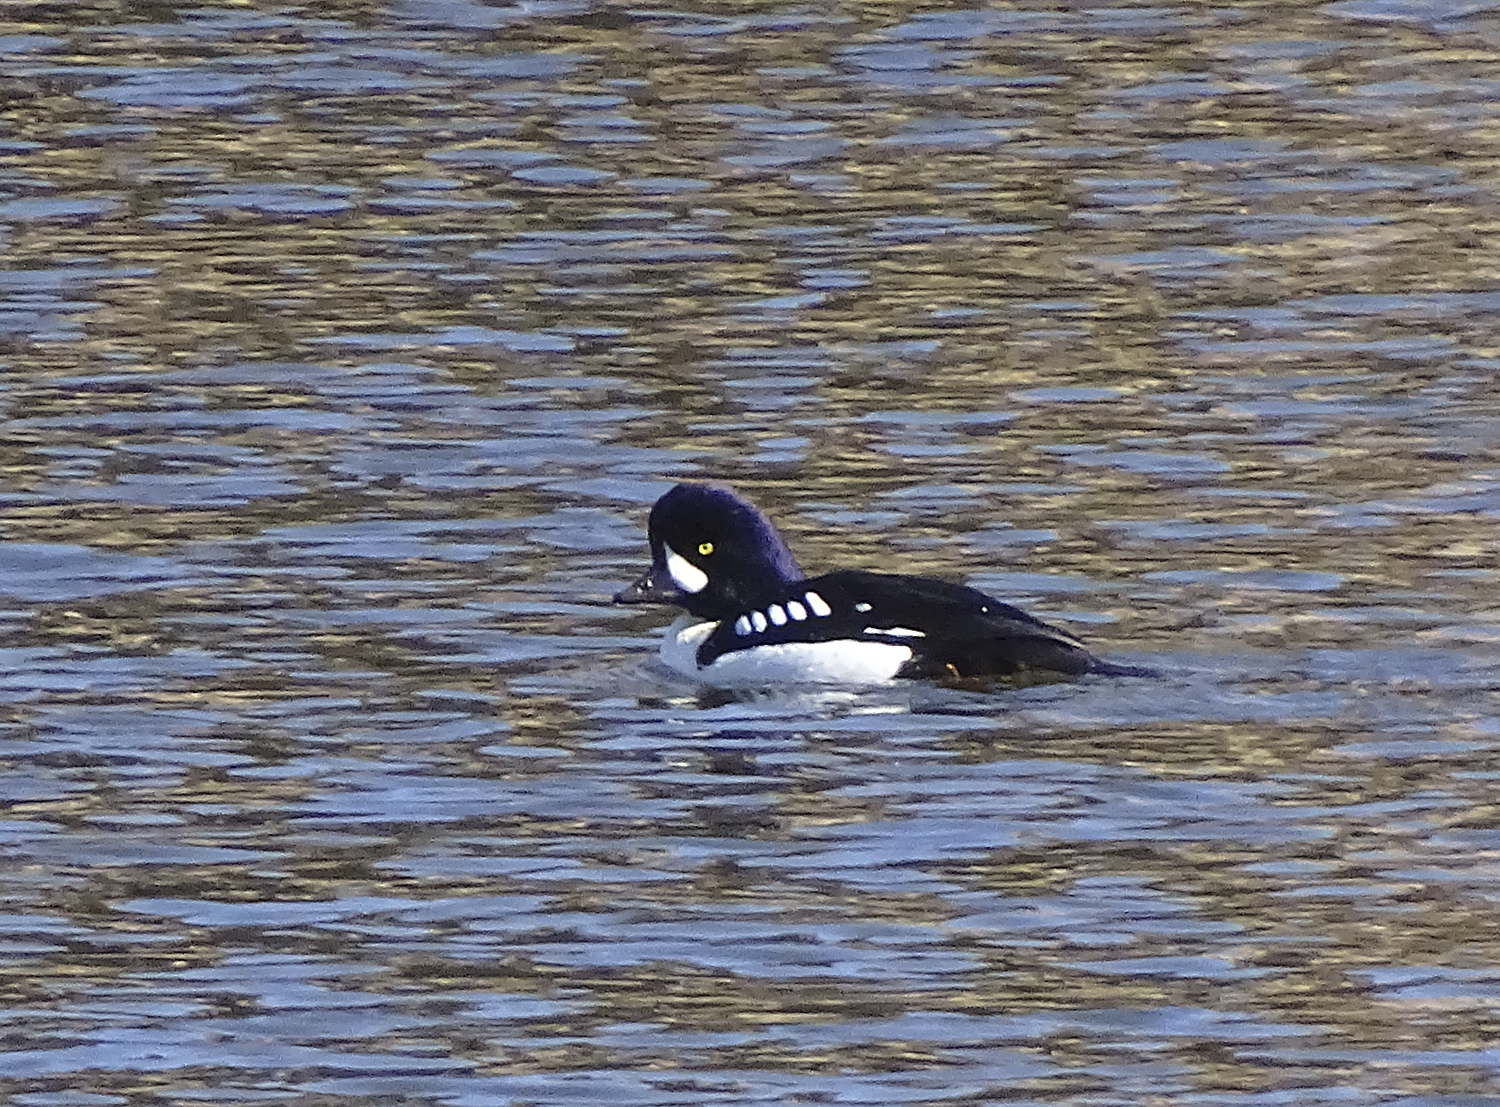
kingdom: Animalia
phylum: Chordata
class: Aves
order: Anseriformes
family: Anatidae
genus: Bucephala
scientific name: Bucephala islandica
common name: Barrow's goldeneye
